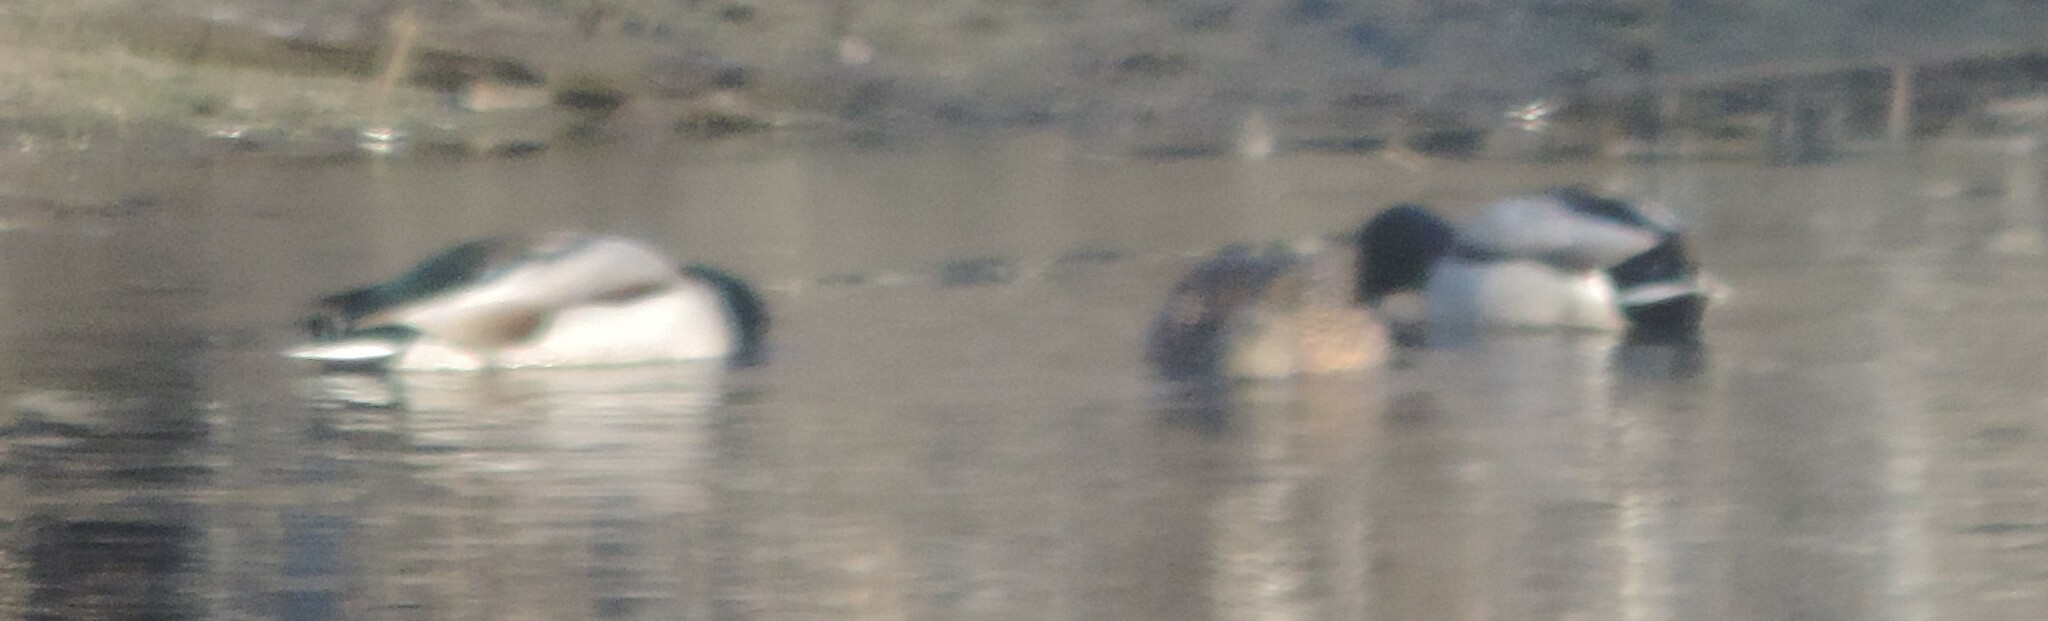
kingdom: Animalia
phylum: Chordata
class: Aves
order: Anseriformes
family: Anatidae
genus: Anas
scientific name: Anas platyrhynchos
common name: Mallard
